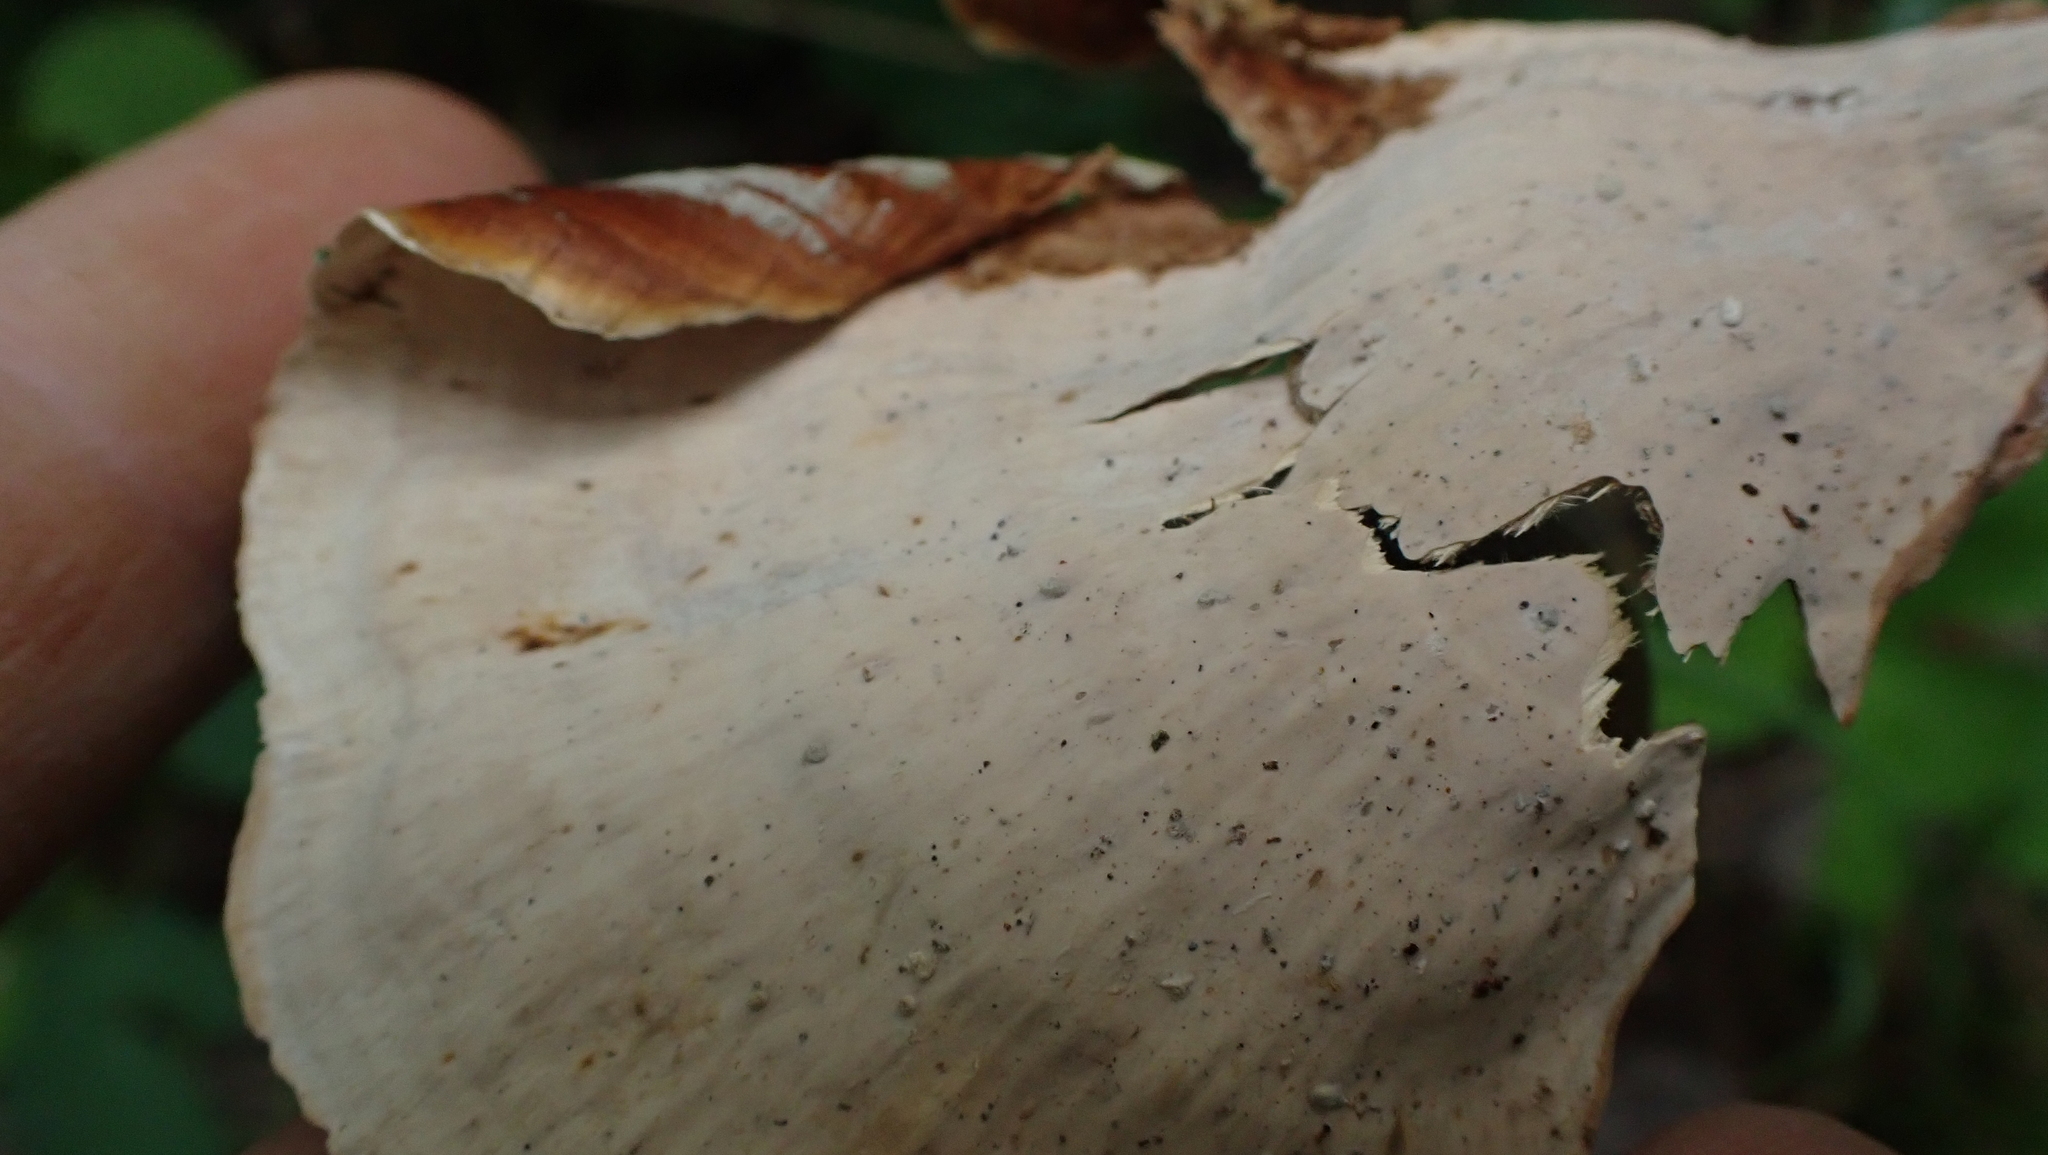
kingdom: Fungi
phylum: Basidiomycota
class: Agaricomycetes
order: Russulales
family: Stereaceae
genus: Stereum
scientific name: Stereum lobatum
